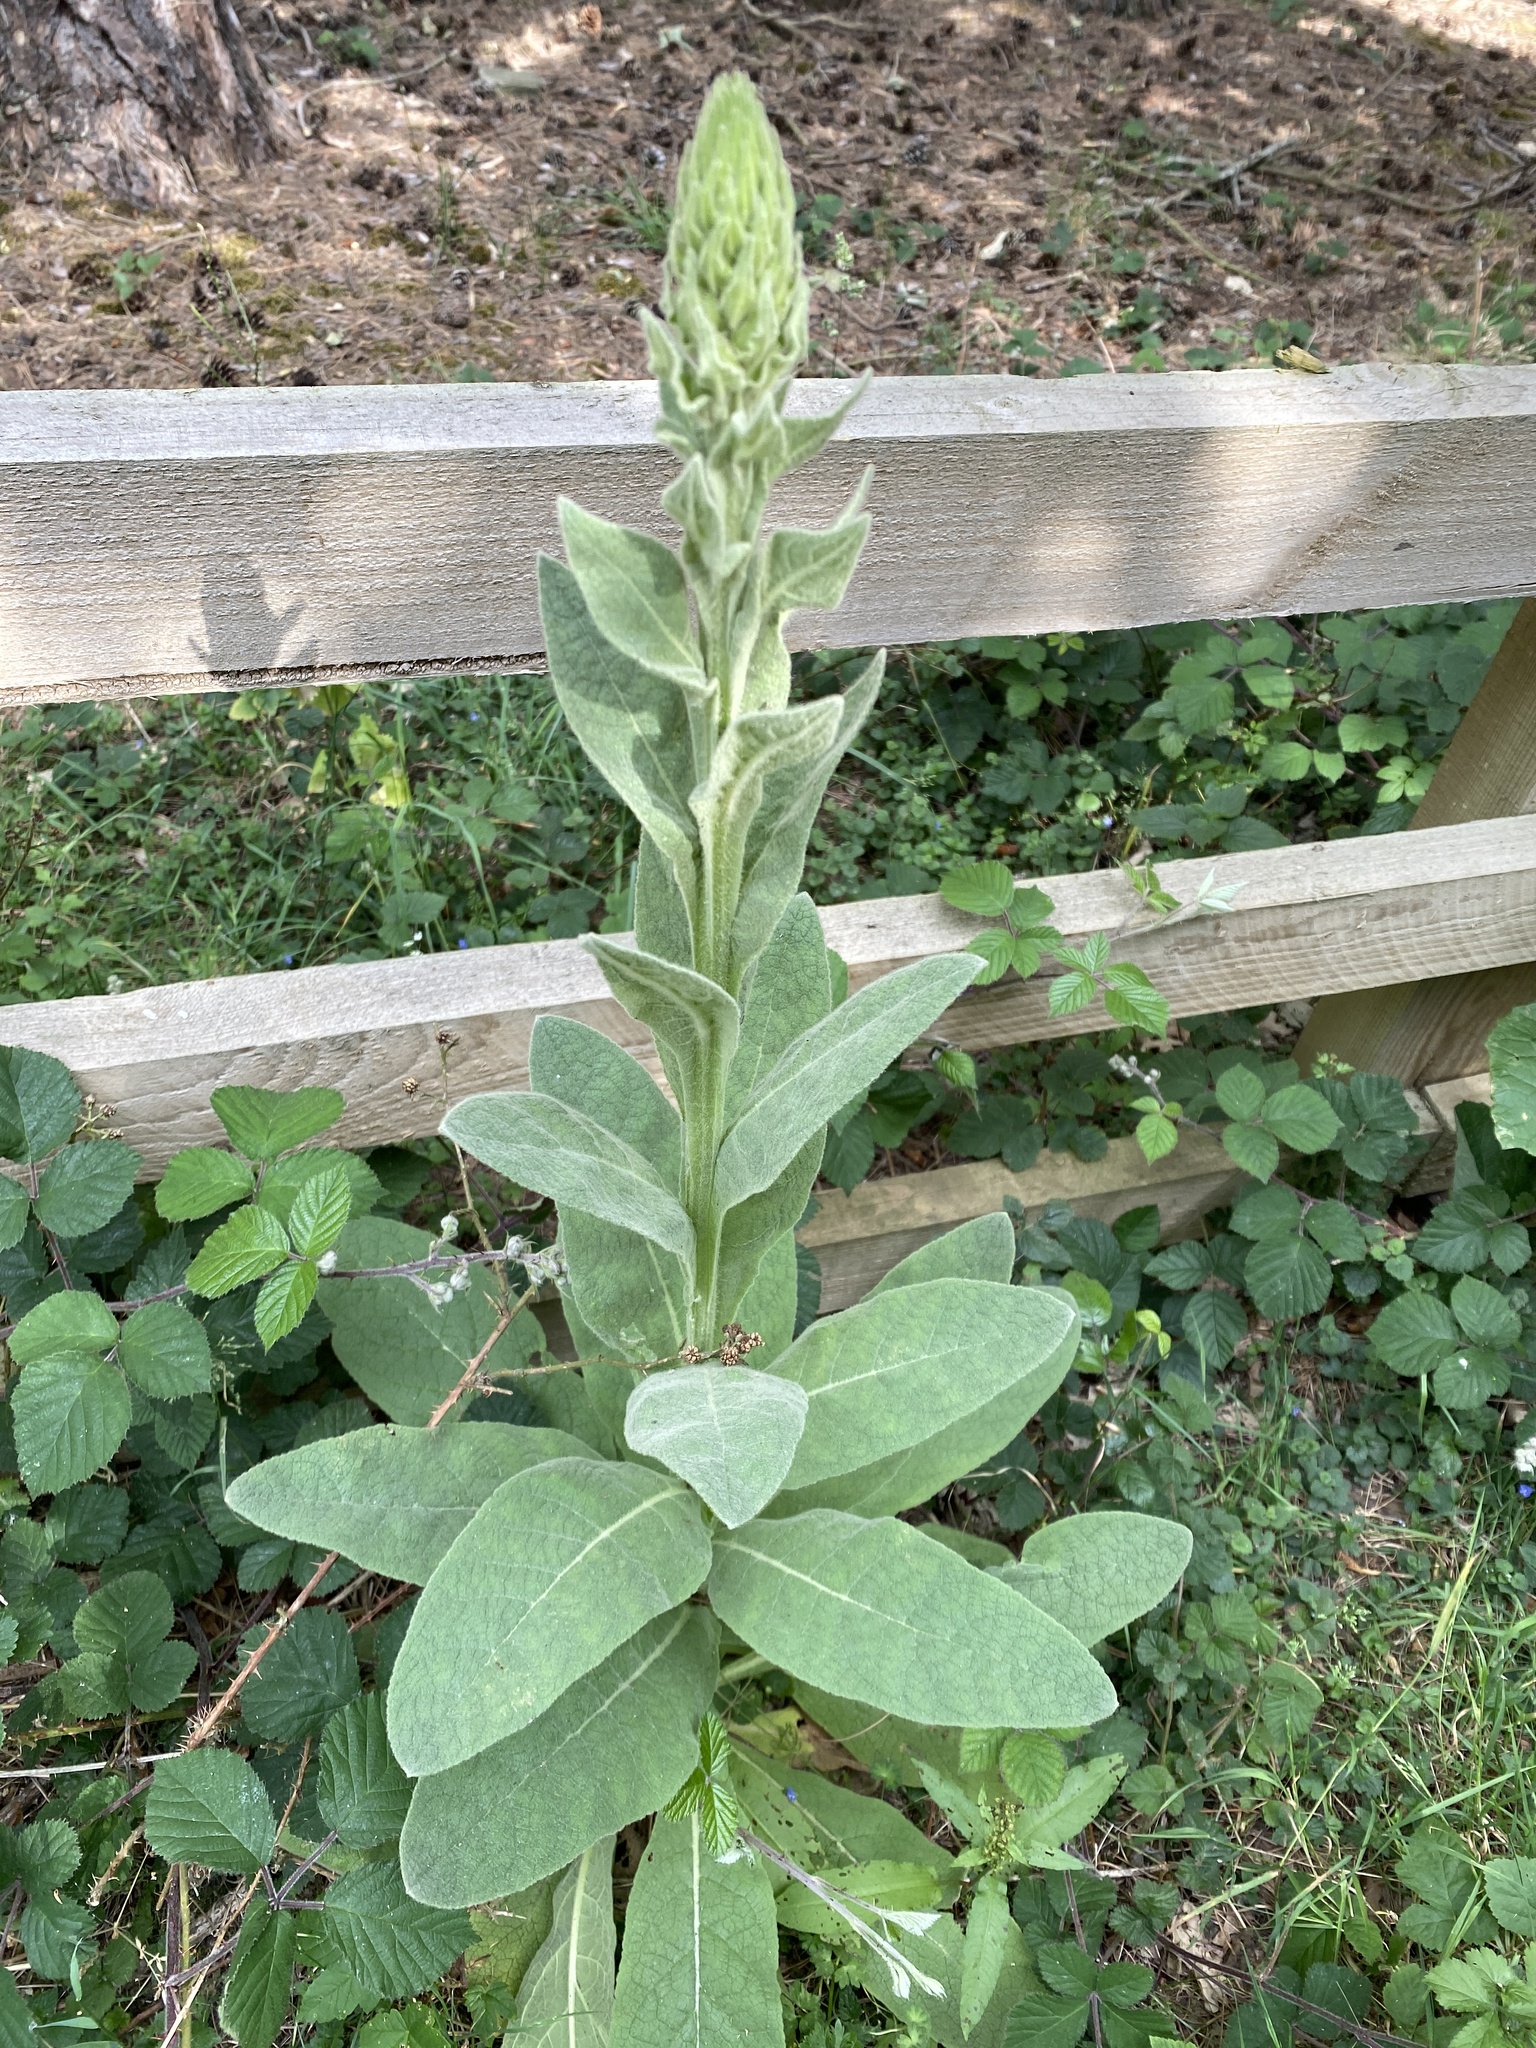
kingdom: Plantae
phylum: Tracheophyta
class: Magnoliopsida
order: Lamiales
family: Scrophulariaceae
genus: Verbascum
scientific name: Verbascum thapsus
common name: Common mullein
